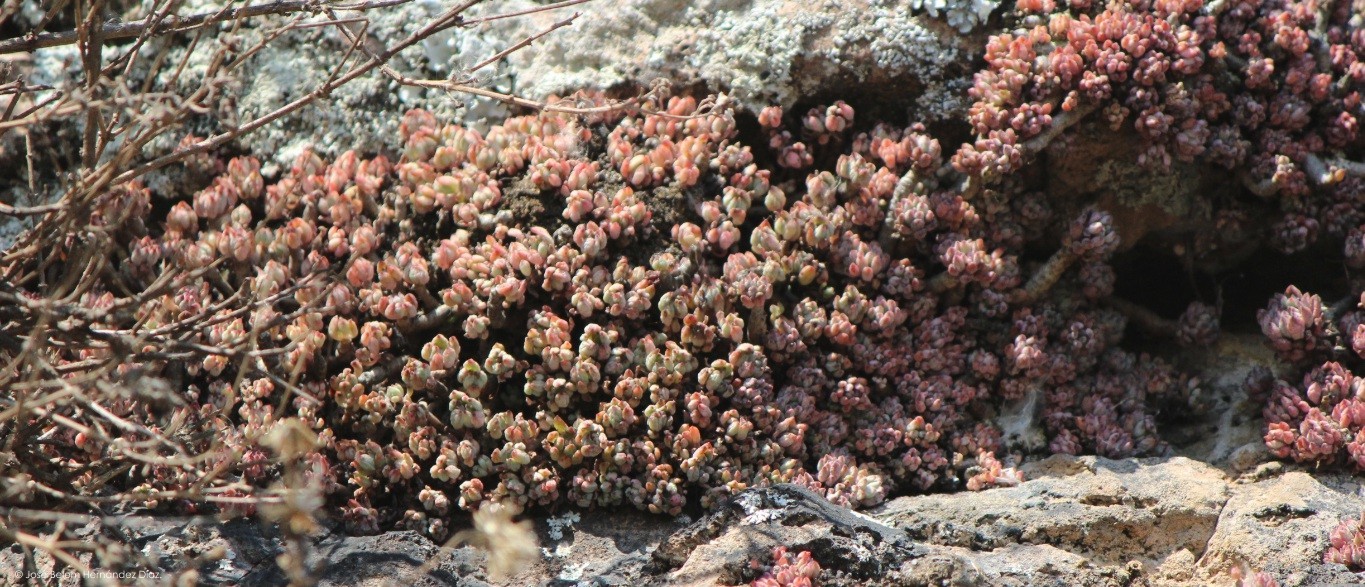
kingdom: Plantae
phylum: Tracheophyta
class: Magnoliopsida
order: Saxifragales
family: Crassulaceae
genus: Graptopetalum
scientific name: Graptopetalum pachyphyllum
